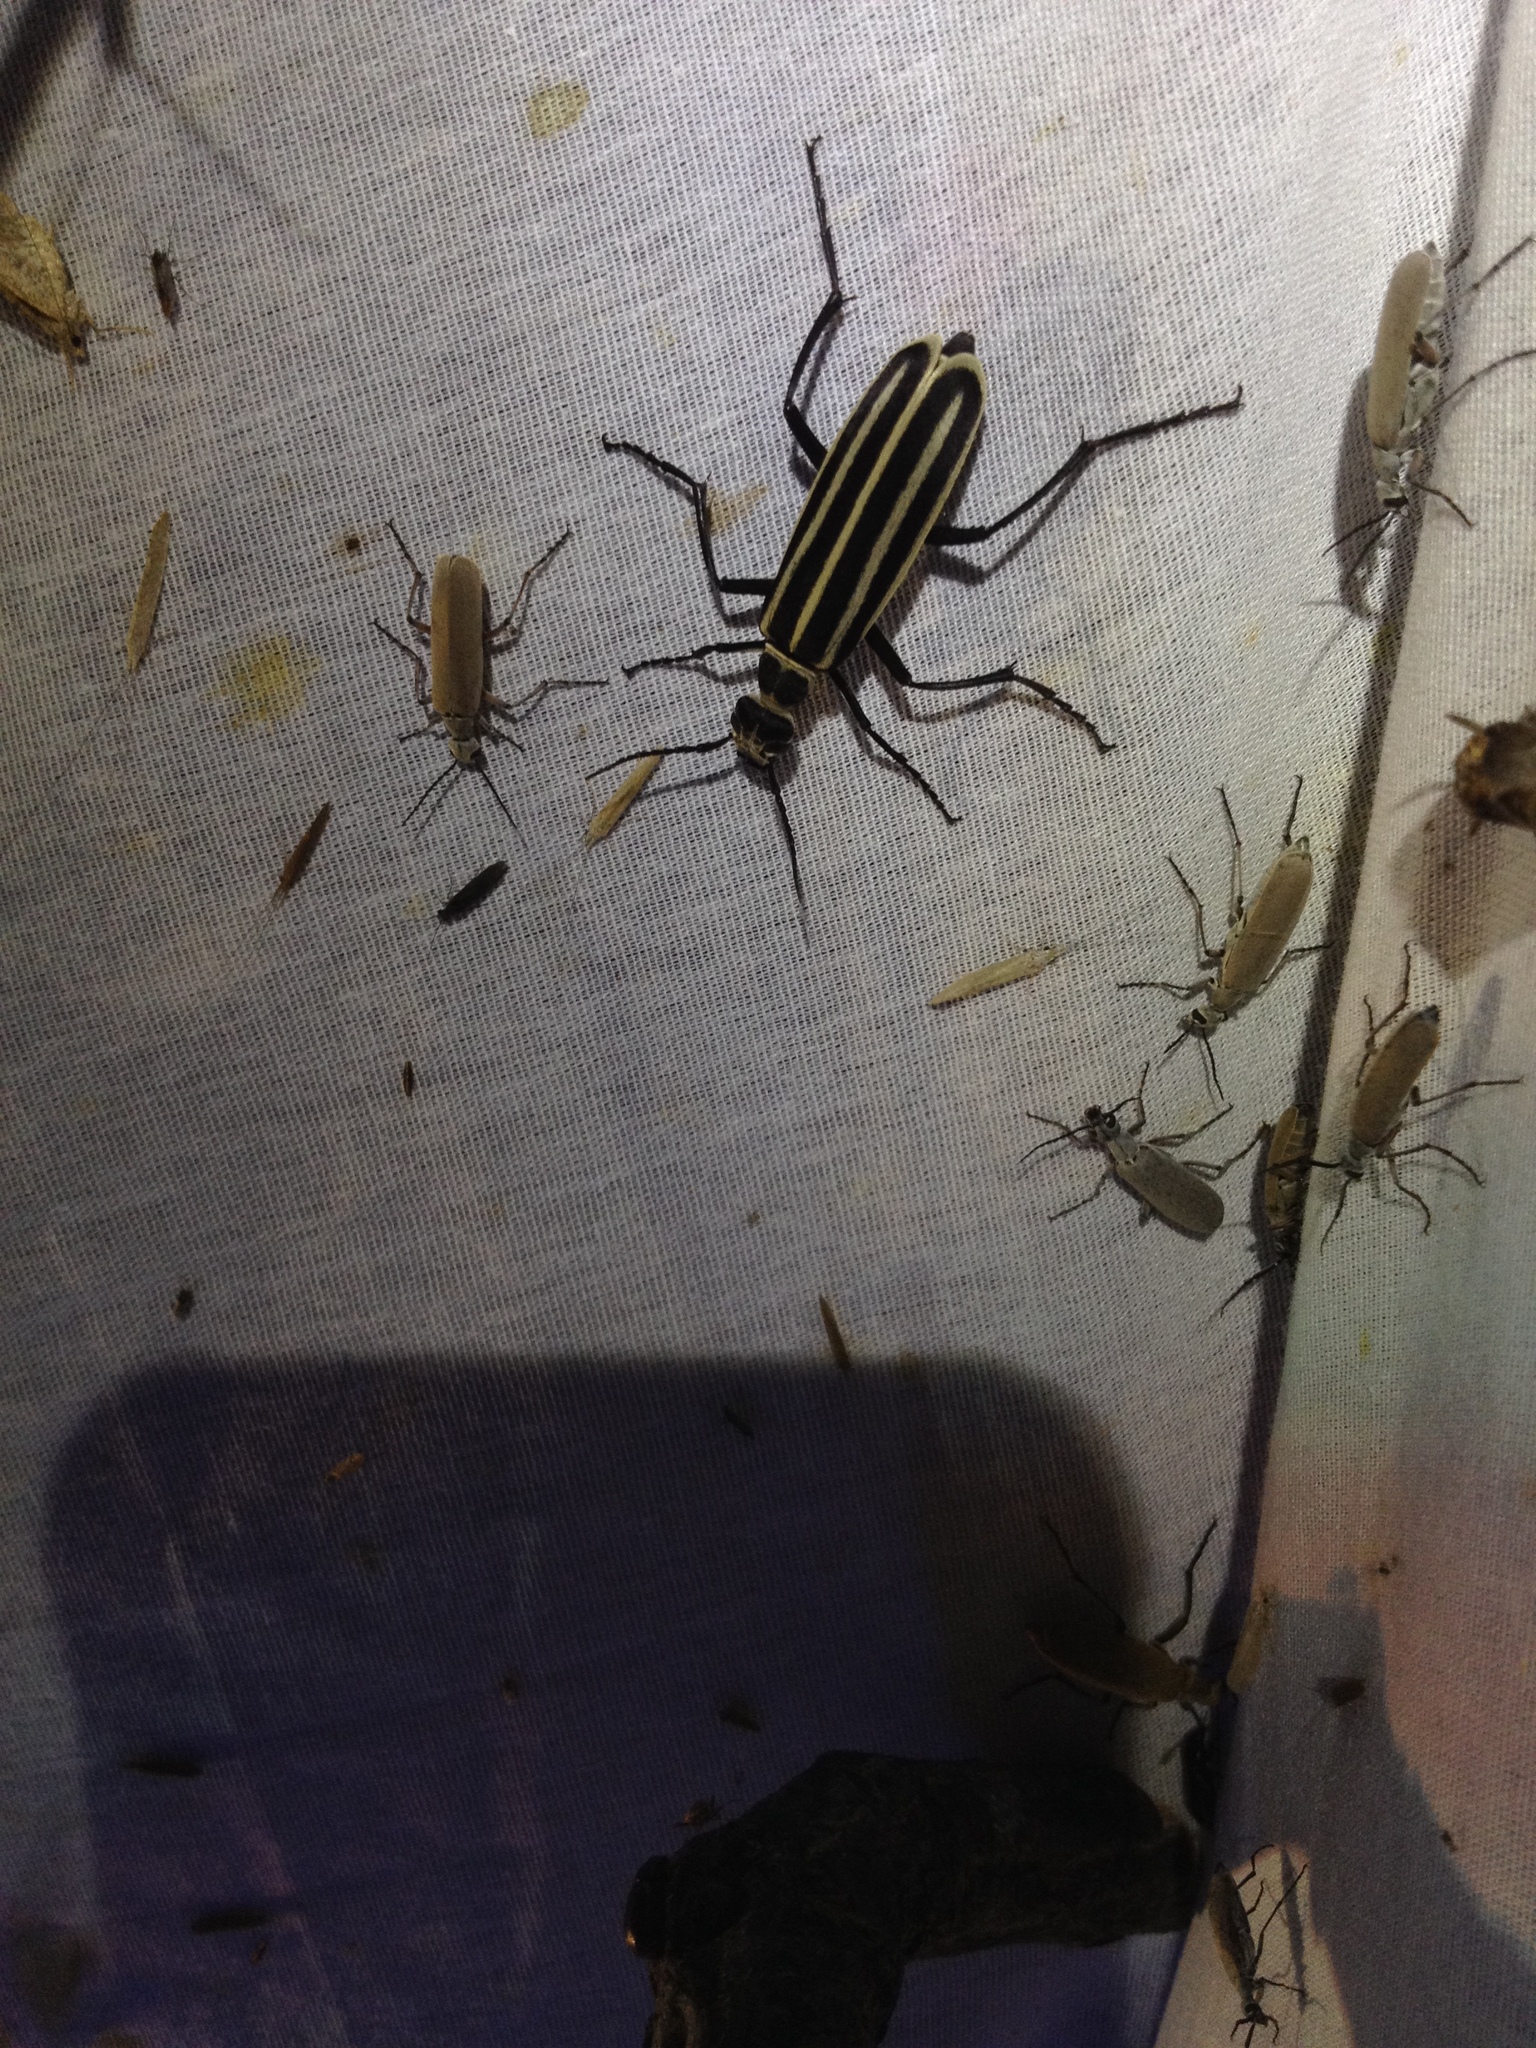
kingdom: Animalia
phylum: Arthropoda
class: Insecta
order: Coleoptera
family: Meloidae
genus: Epicauta
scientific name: Epicauta atrivittata
